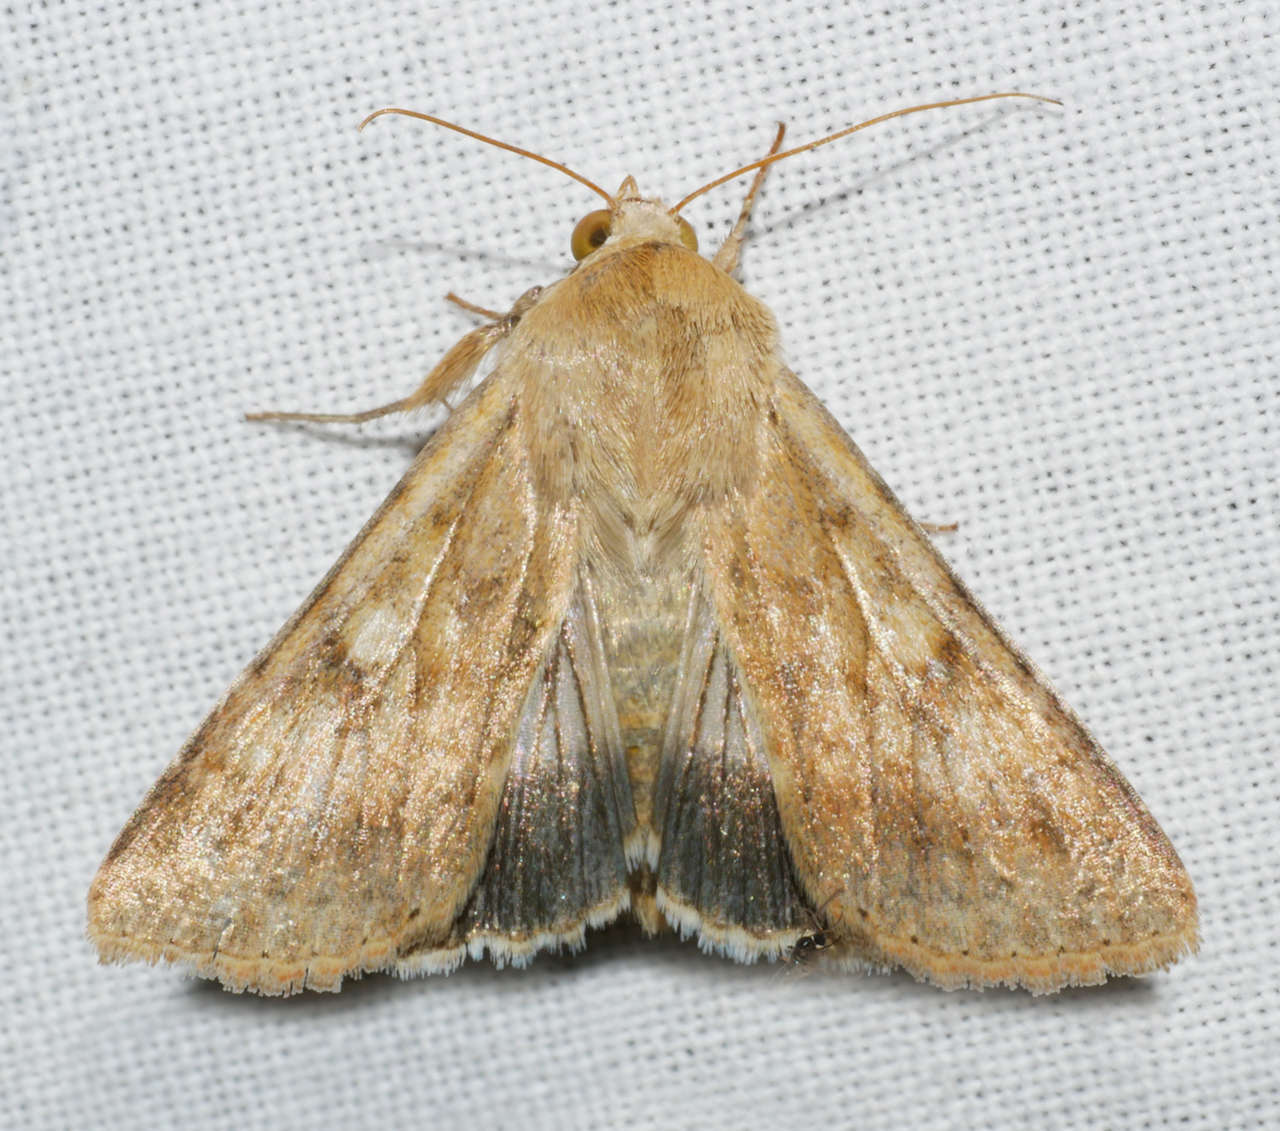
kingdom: Animalia
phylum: Arthropoda
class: Insecta
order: Lepidoptera
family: Noctuidae
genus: Helicoverpa
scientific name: Helicoverpa punctigera
